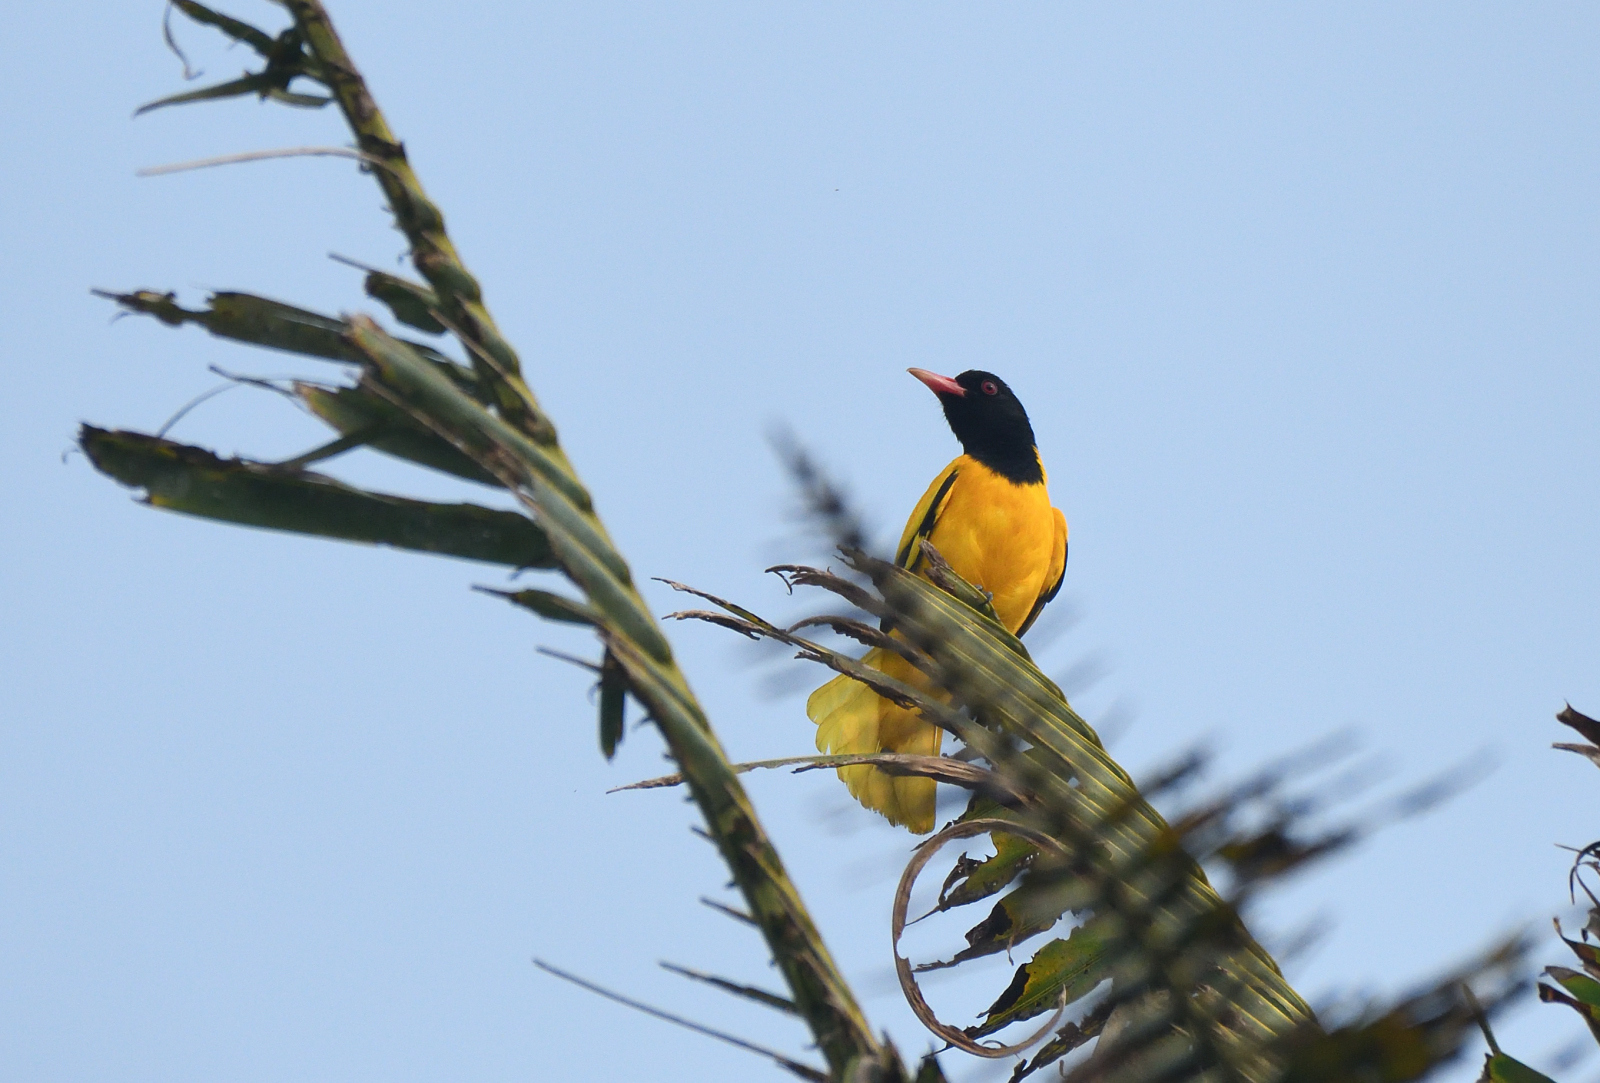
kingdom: Animalia
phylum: Chordata
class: Aves
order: Passeriformes
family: Oriolidae
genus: Oriolus
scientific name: Oriolus xanthornus
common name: Black-hooded oriole
